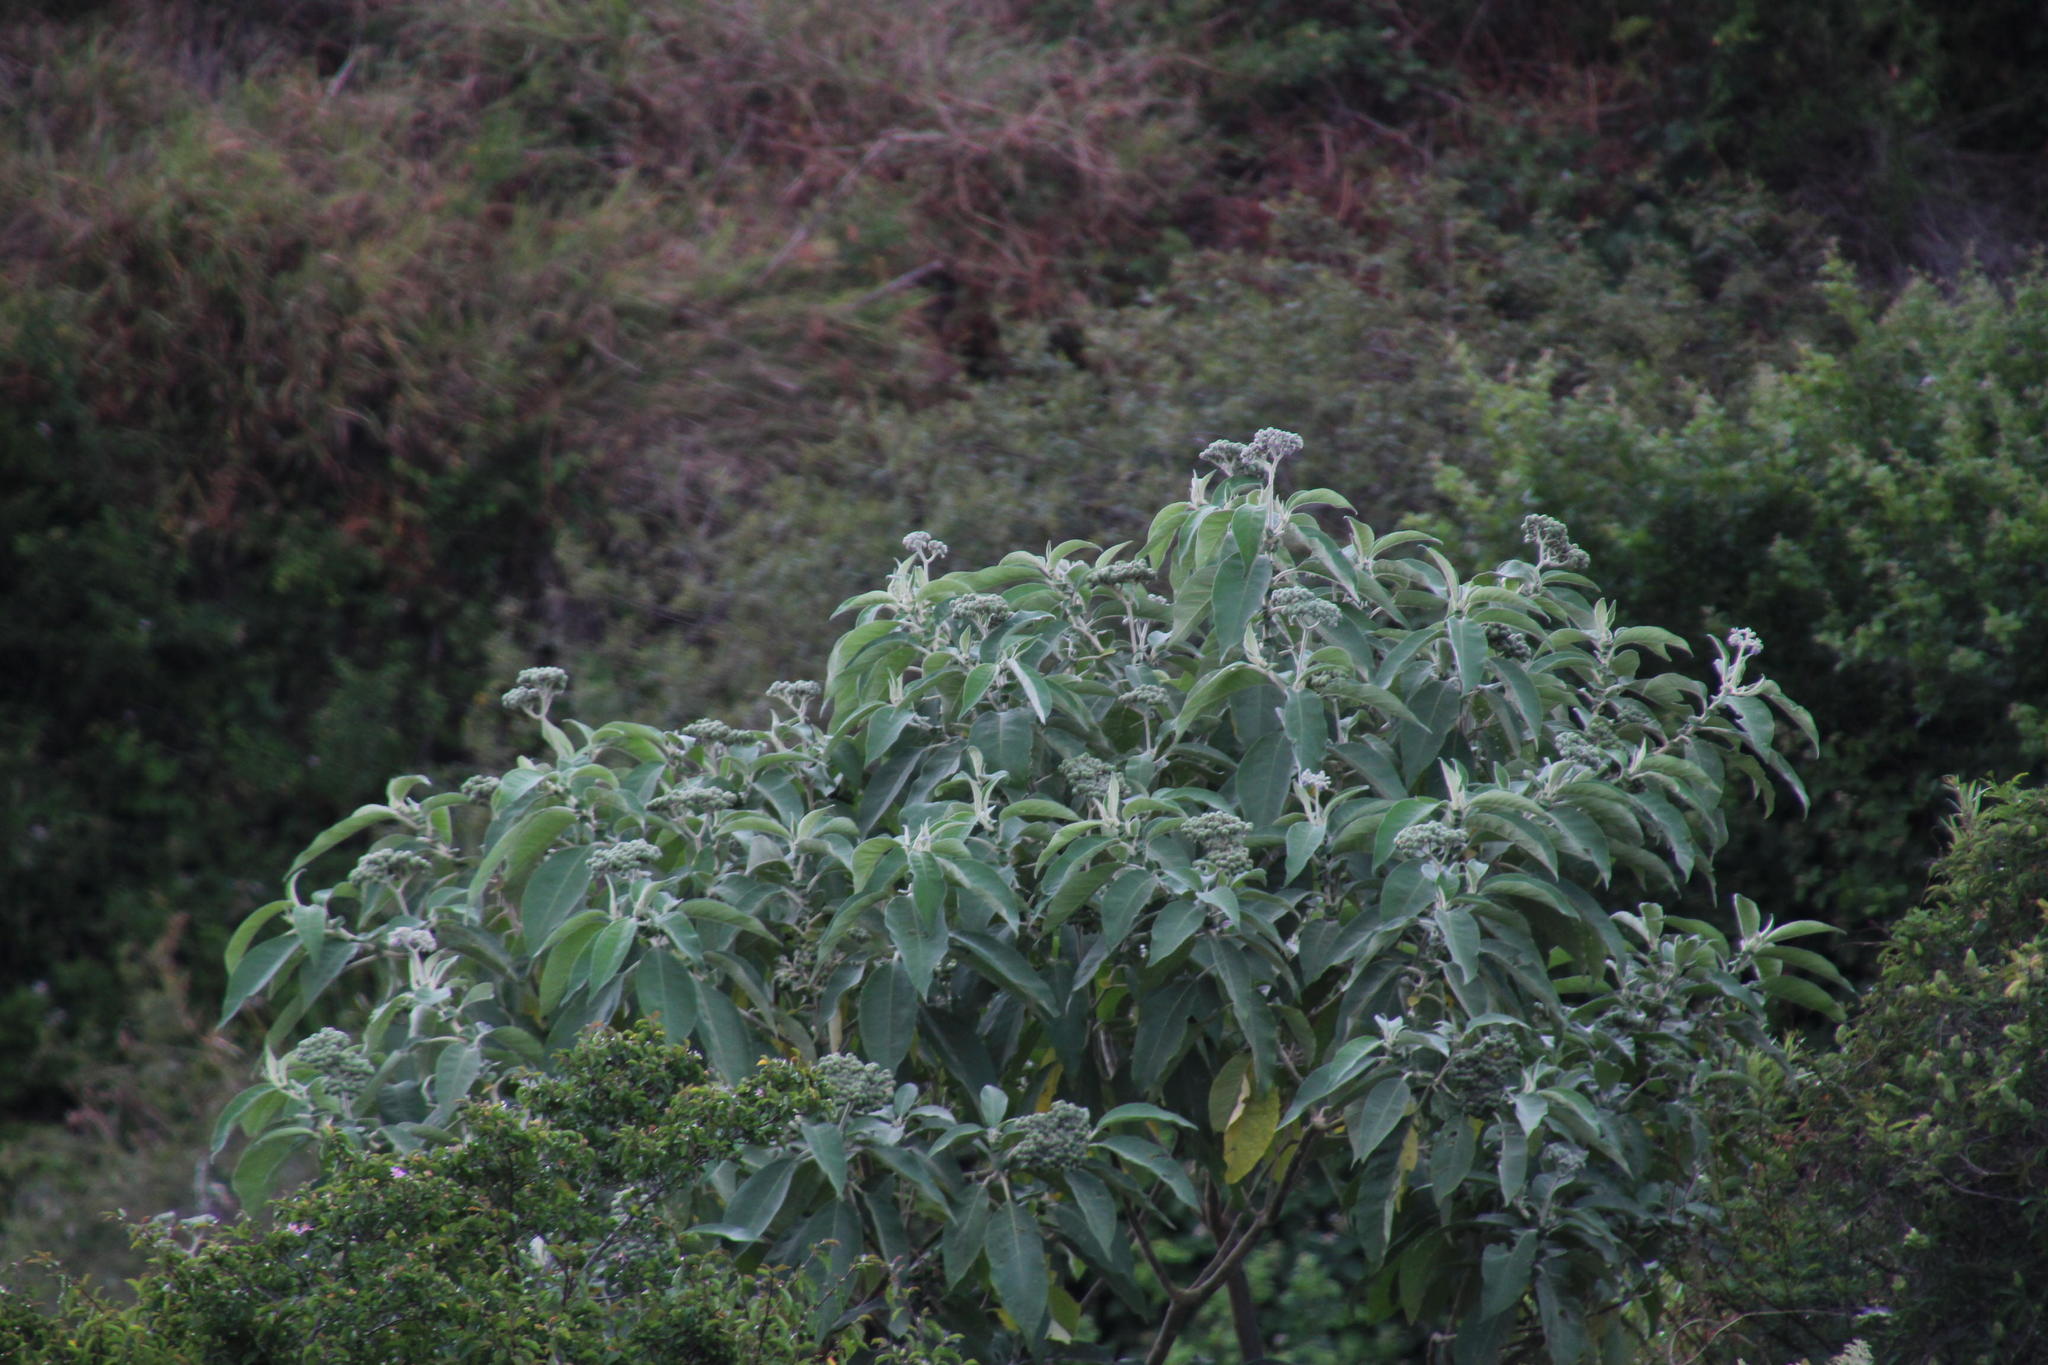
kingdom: Plantae
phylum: Tracheophyta
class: Magnoliopsida
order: Solanales
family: Solanaceae
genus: Solanum
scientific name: Solanum mauritianum
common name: Earleaf nightshade
